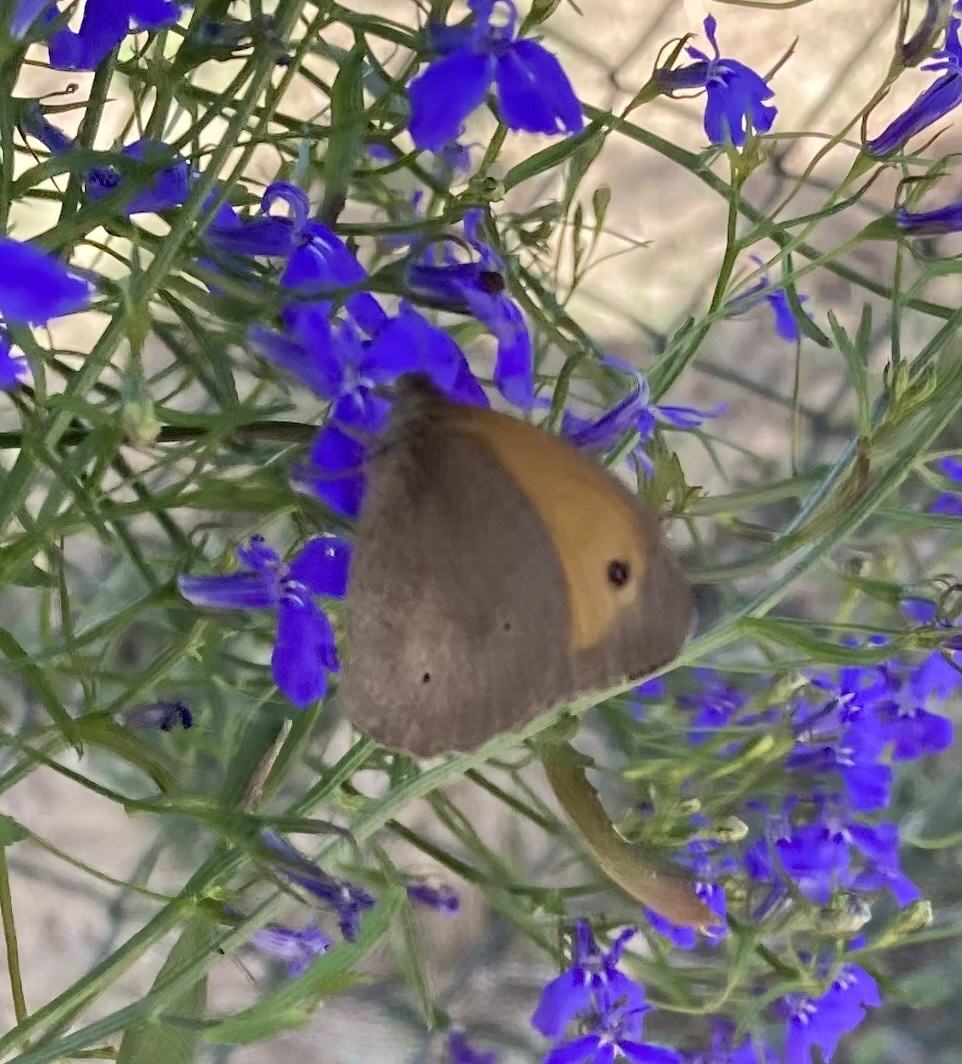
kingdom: Animalia
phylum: Arthropoda
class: Insecta
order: Lepidoptera
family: Nymphalidae
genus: Maniola
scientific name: Maniola jurtina
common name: Meadow brown
